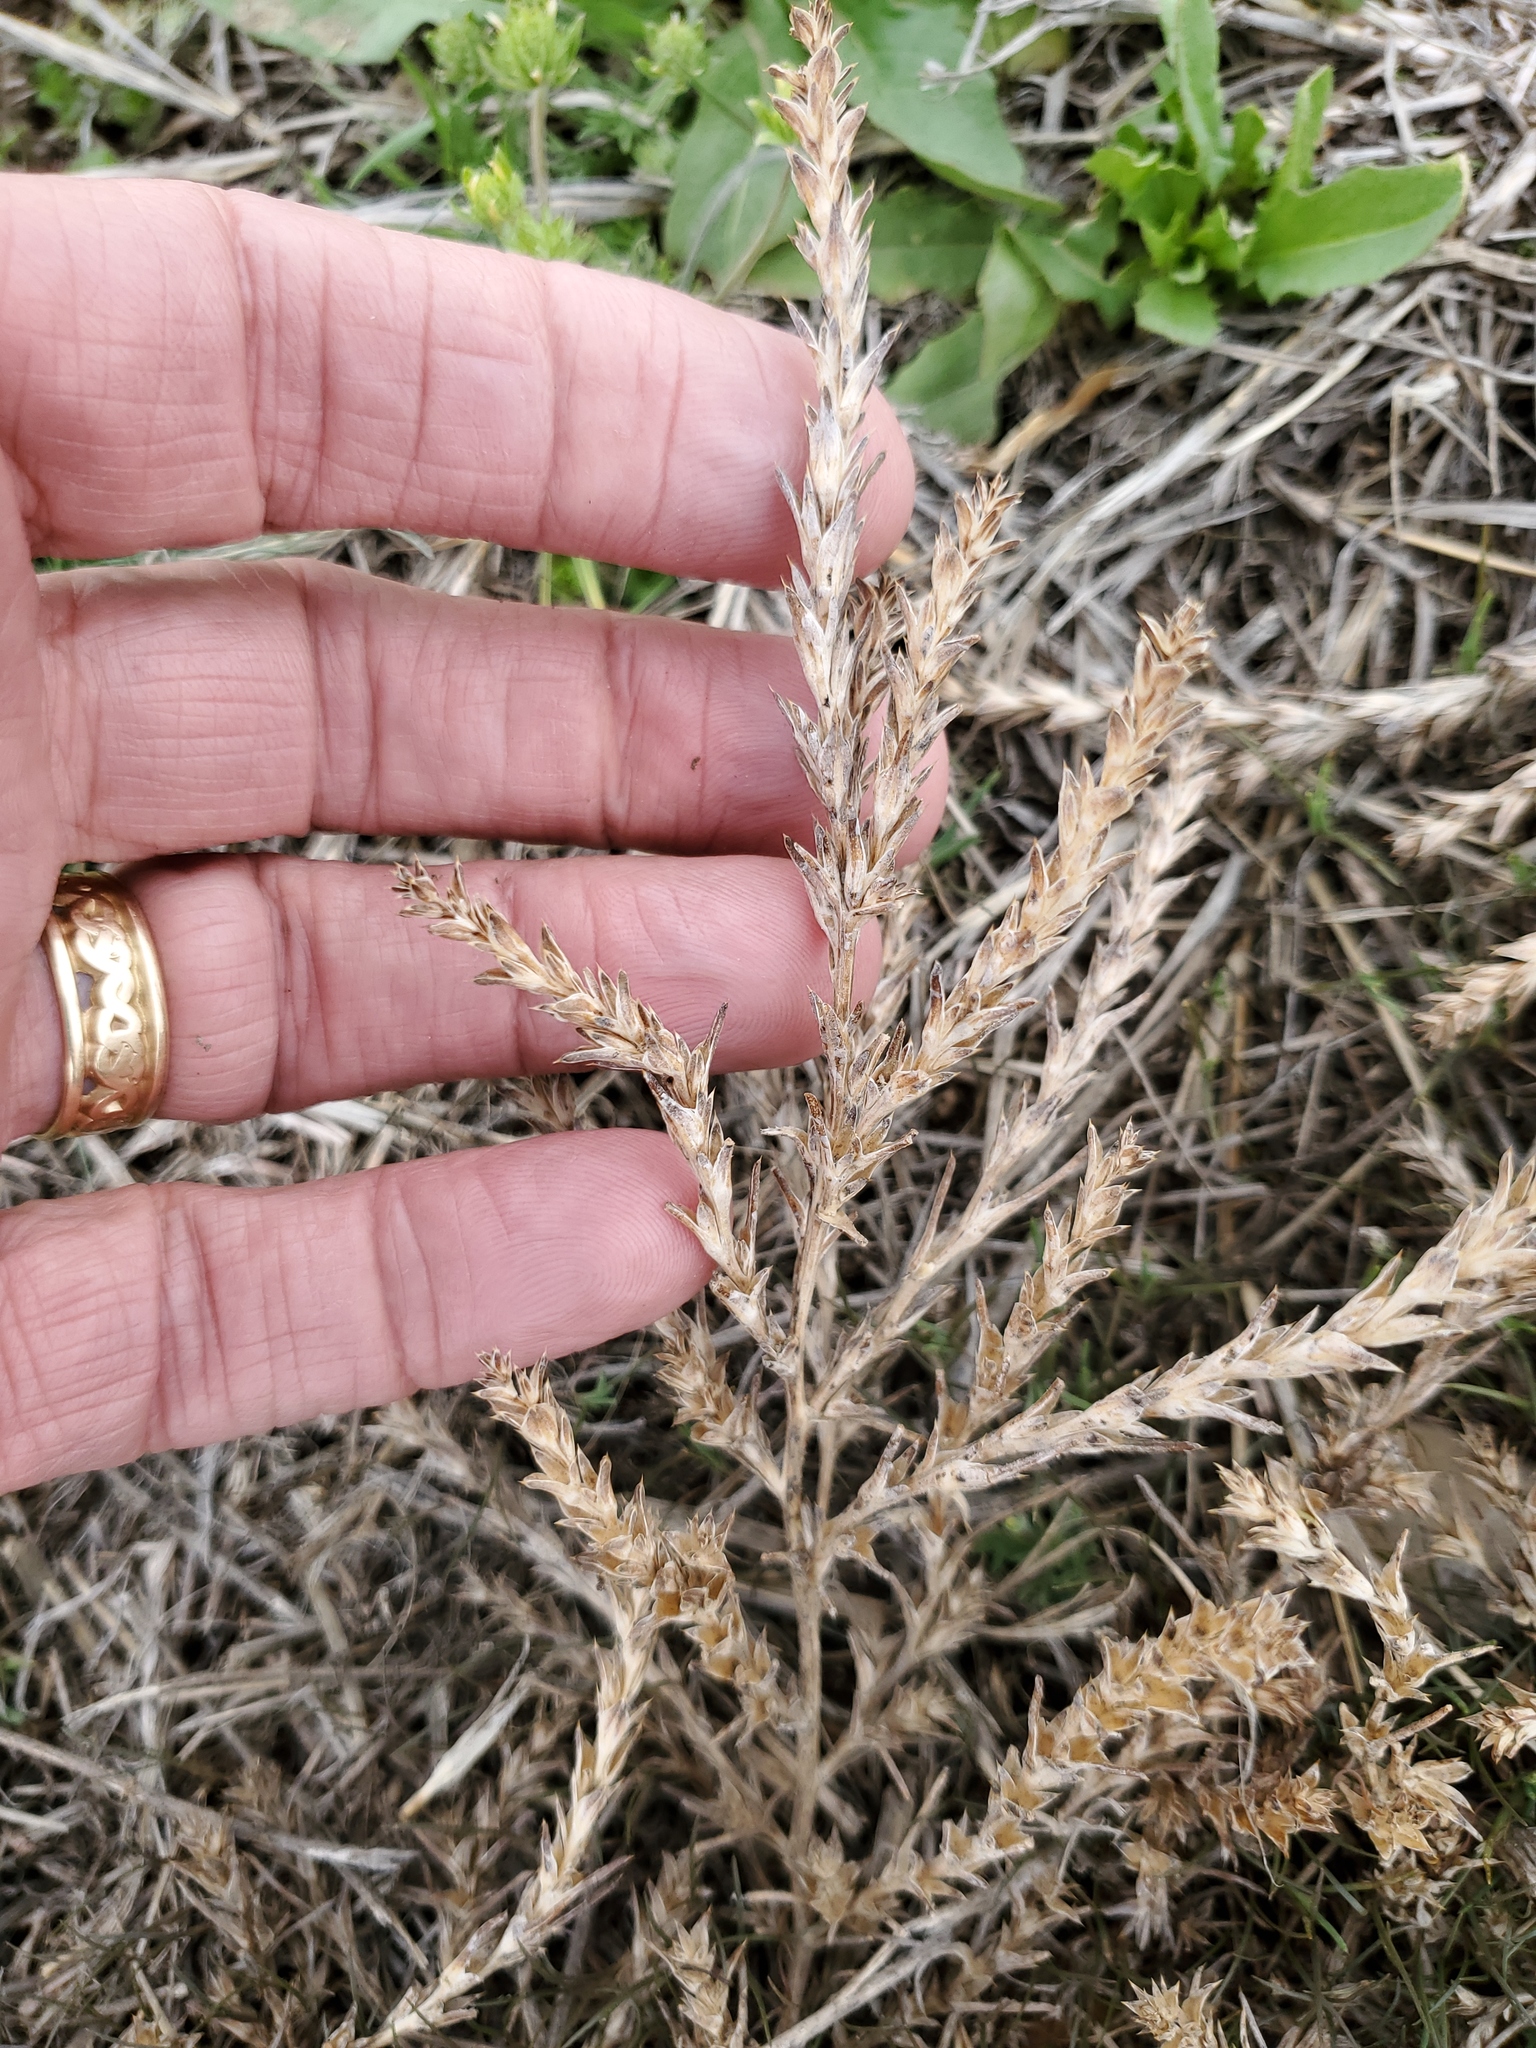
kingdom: Plantae
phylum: Tracheophyta
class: Magnoliopsida
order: Caryophyllales
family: Amaranthaceae
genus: Salsola
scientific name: Salsola tragus
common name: Prickly russian thistle
